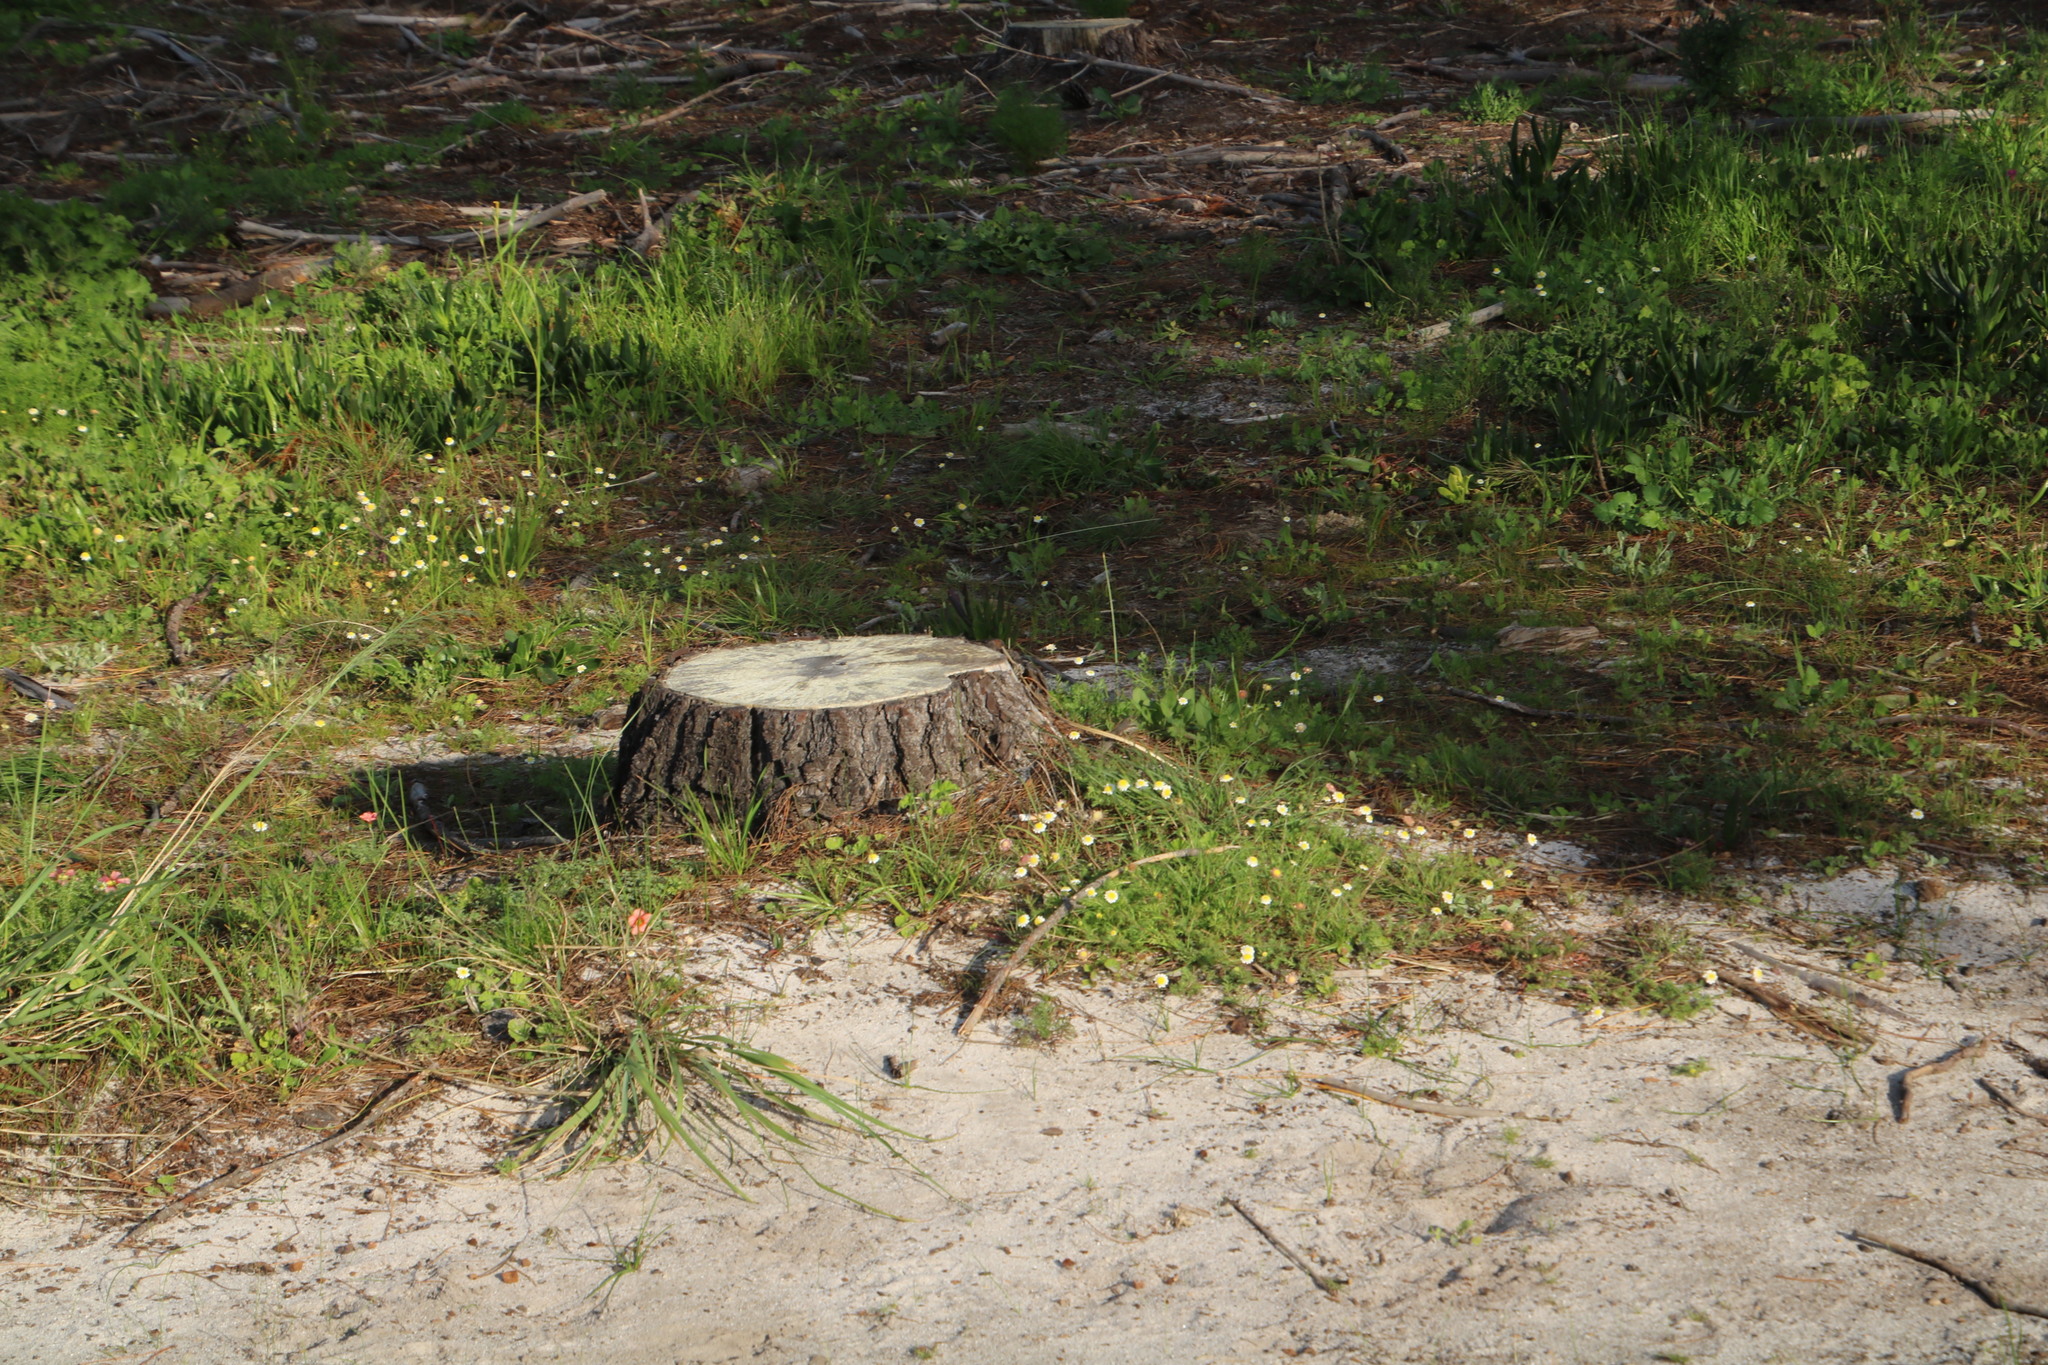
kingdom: Plantae
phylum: Tracheophyta
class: Magnoliopsida
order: Asterales
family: Asteraceae
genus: Cotula
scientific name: Cotula turbinata
